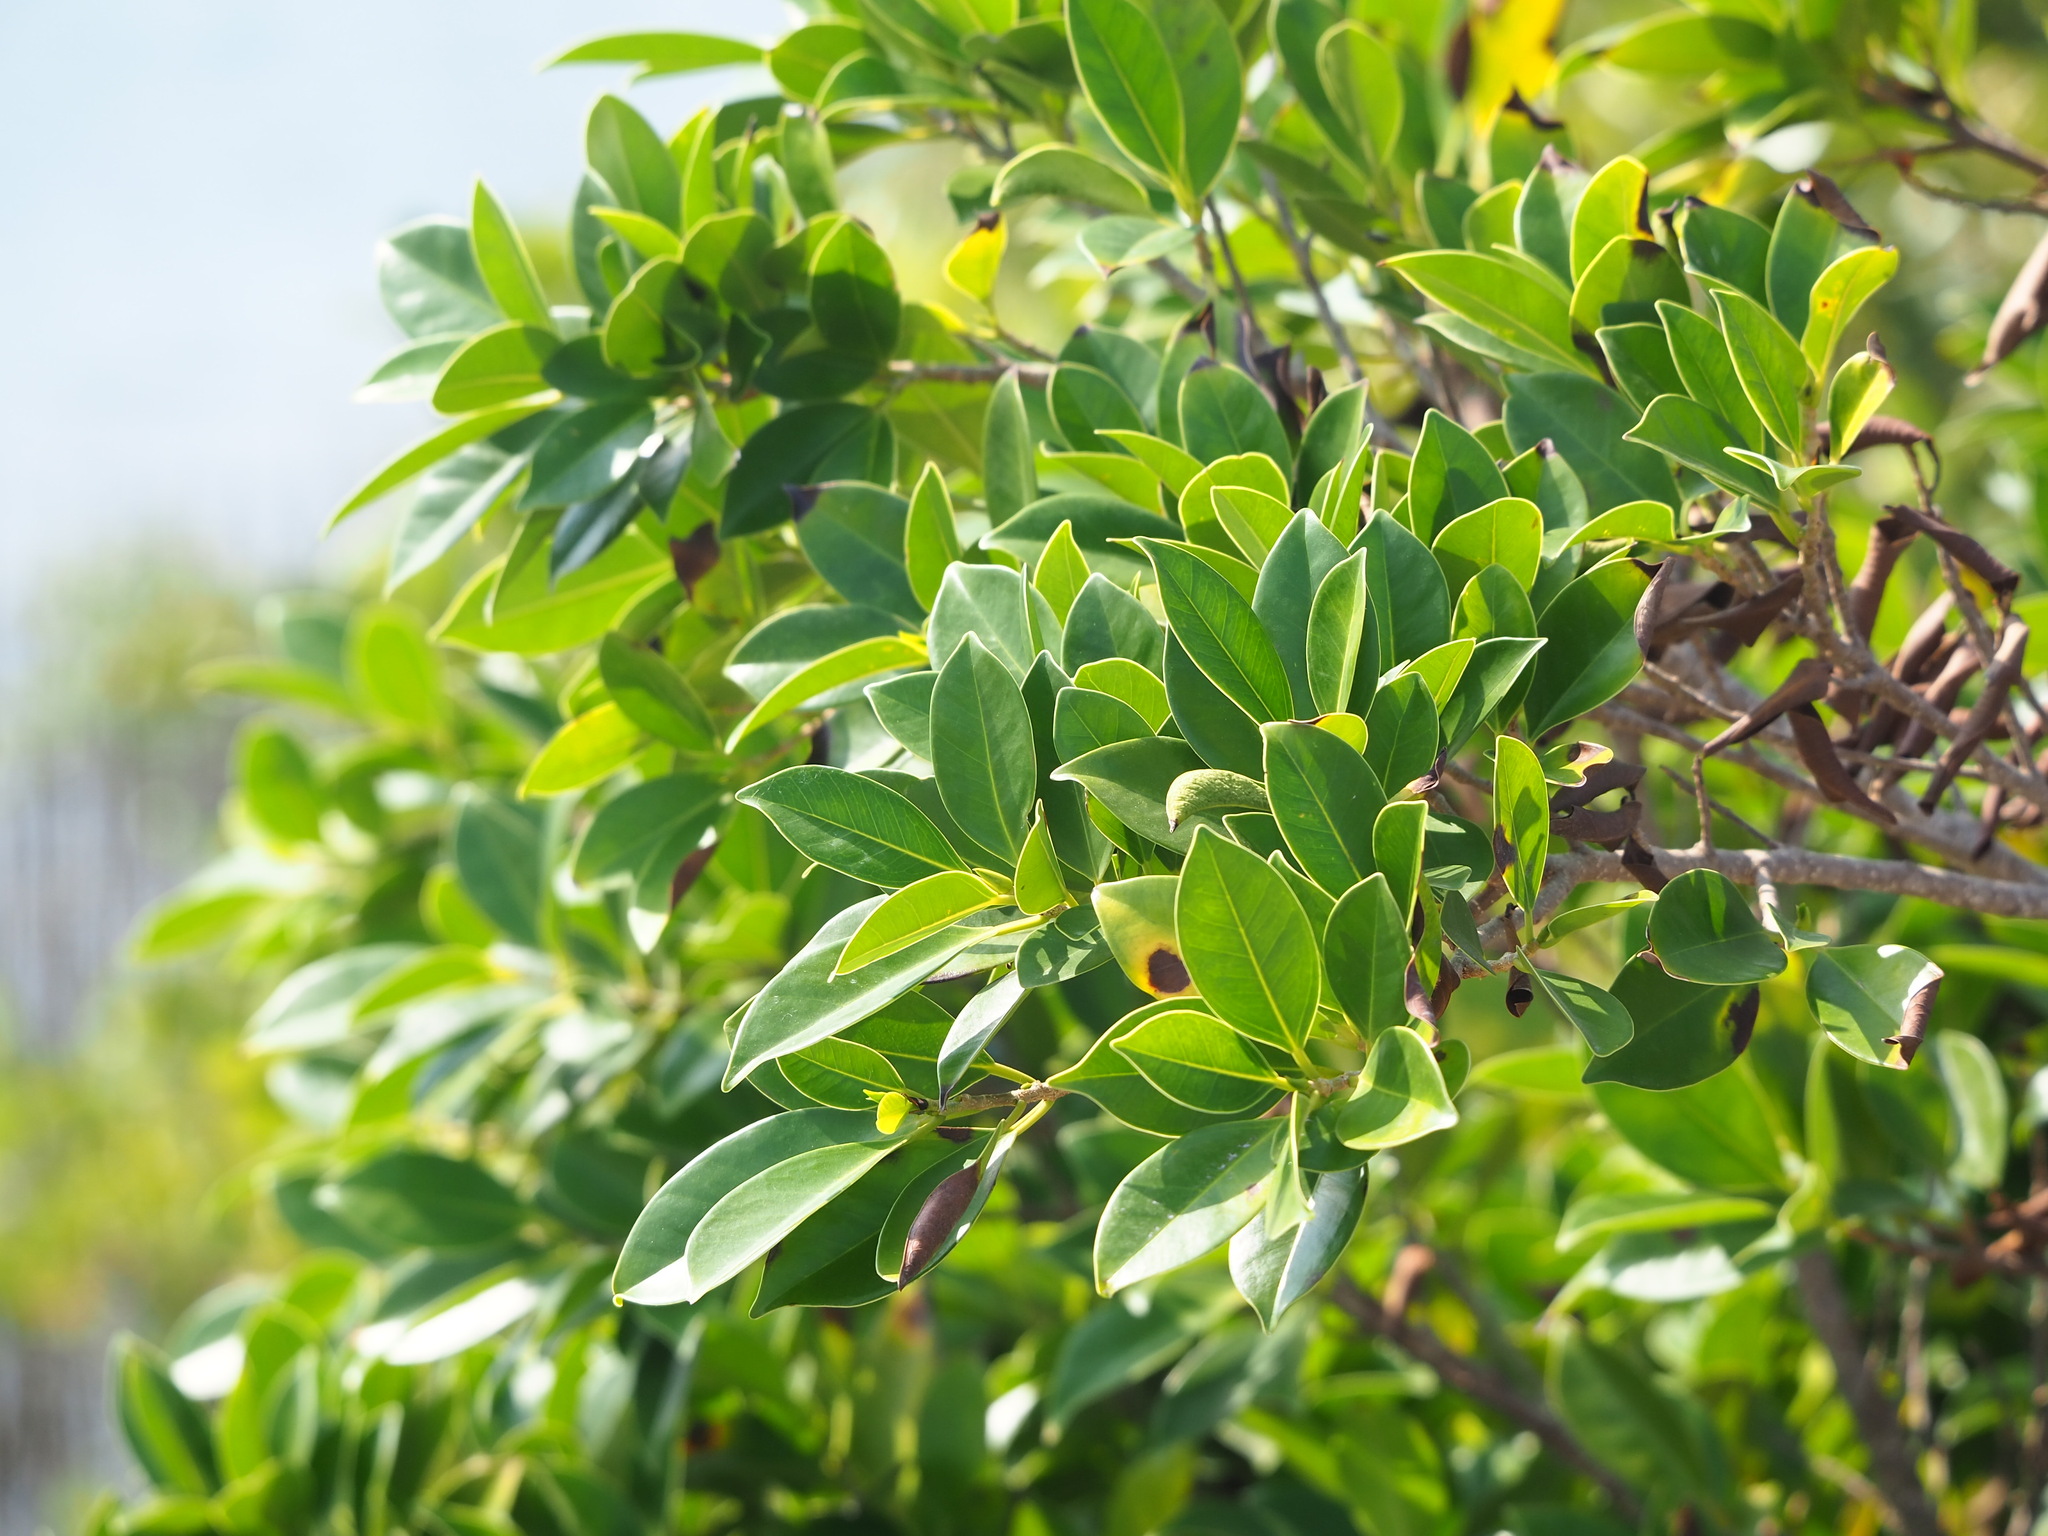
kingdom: Plantae
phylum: Tracheophyta
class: Magnoliopsida
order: Rosales
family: Moraceae
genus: Ficus
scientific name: Ficus microcarpa
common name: Chinese banyan
